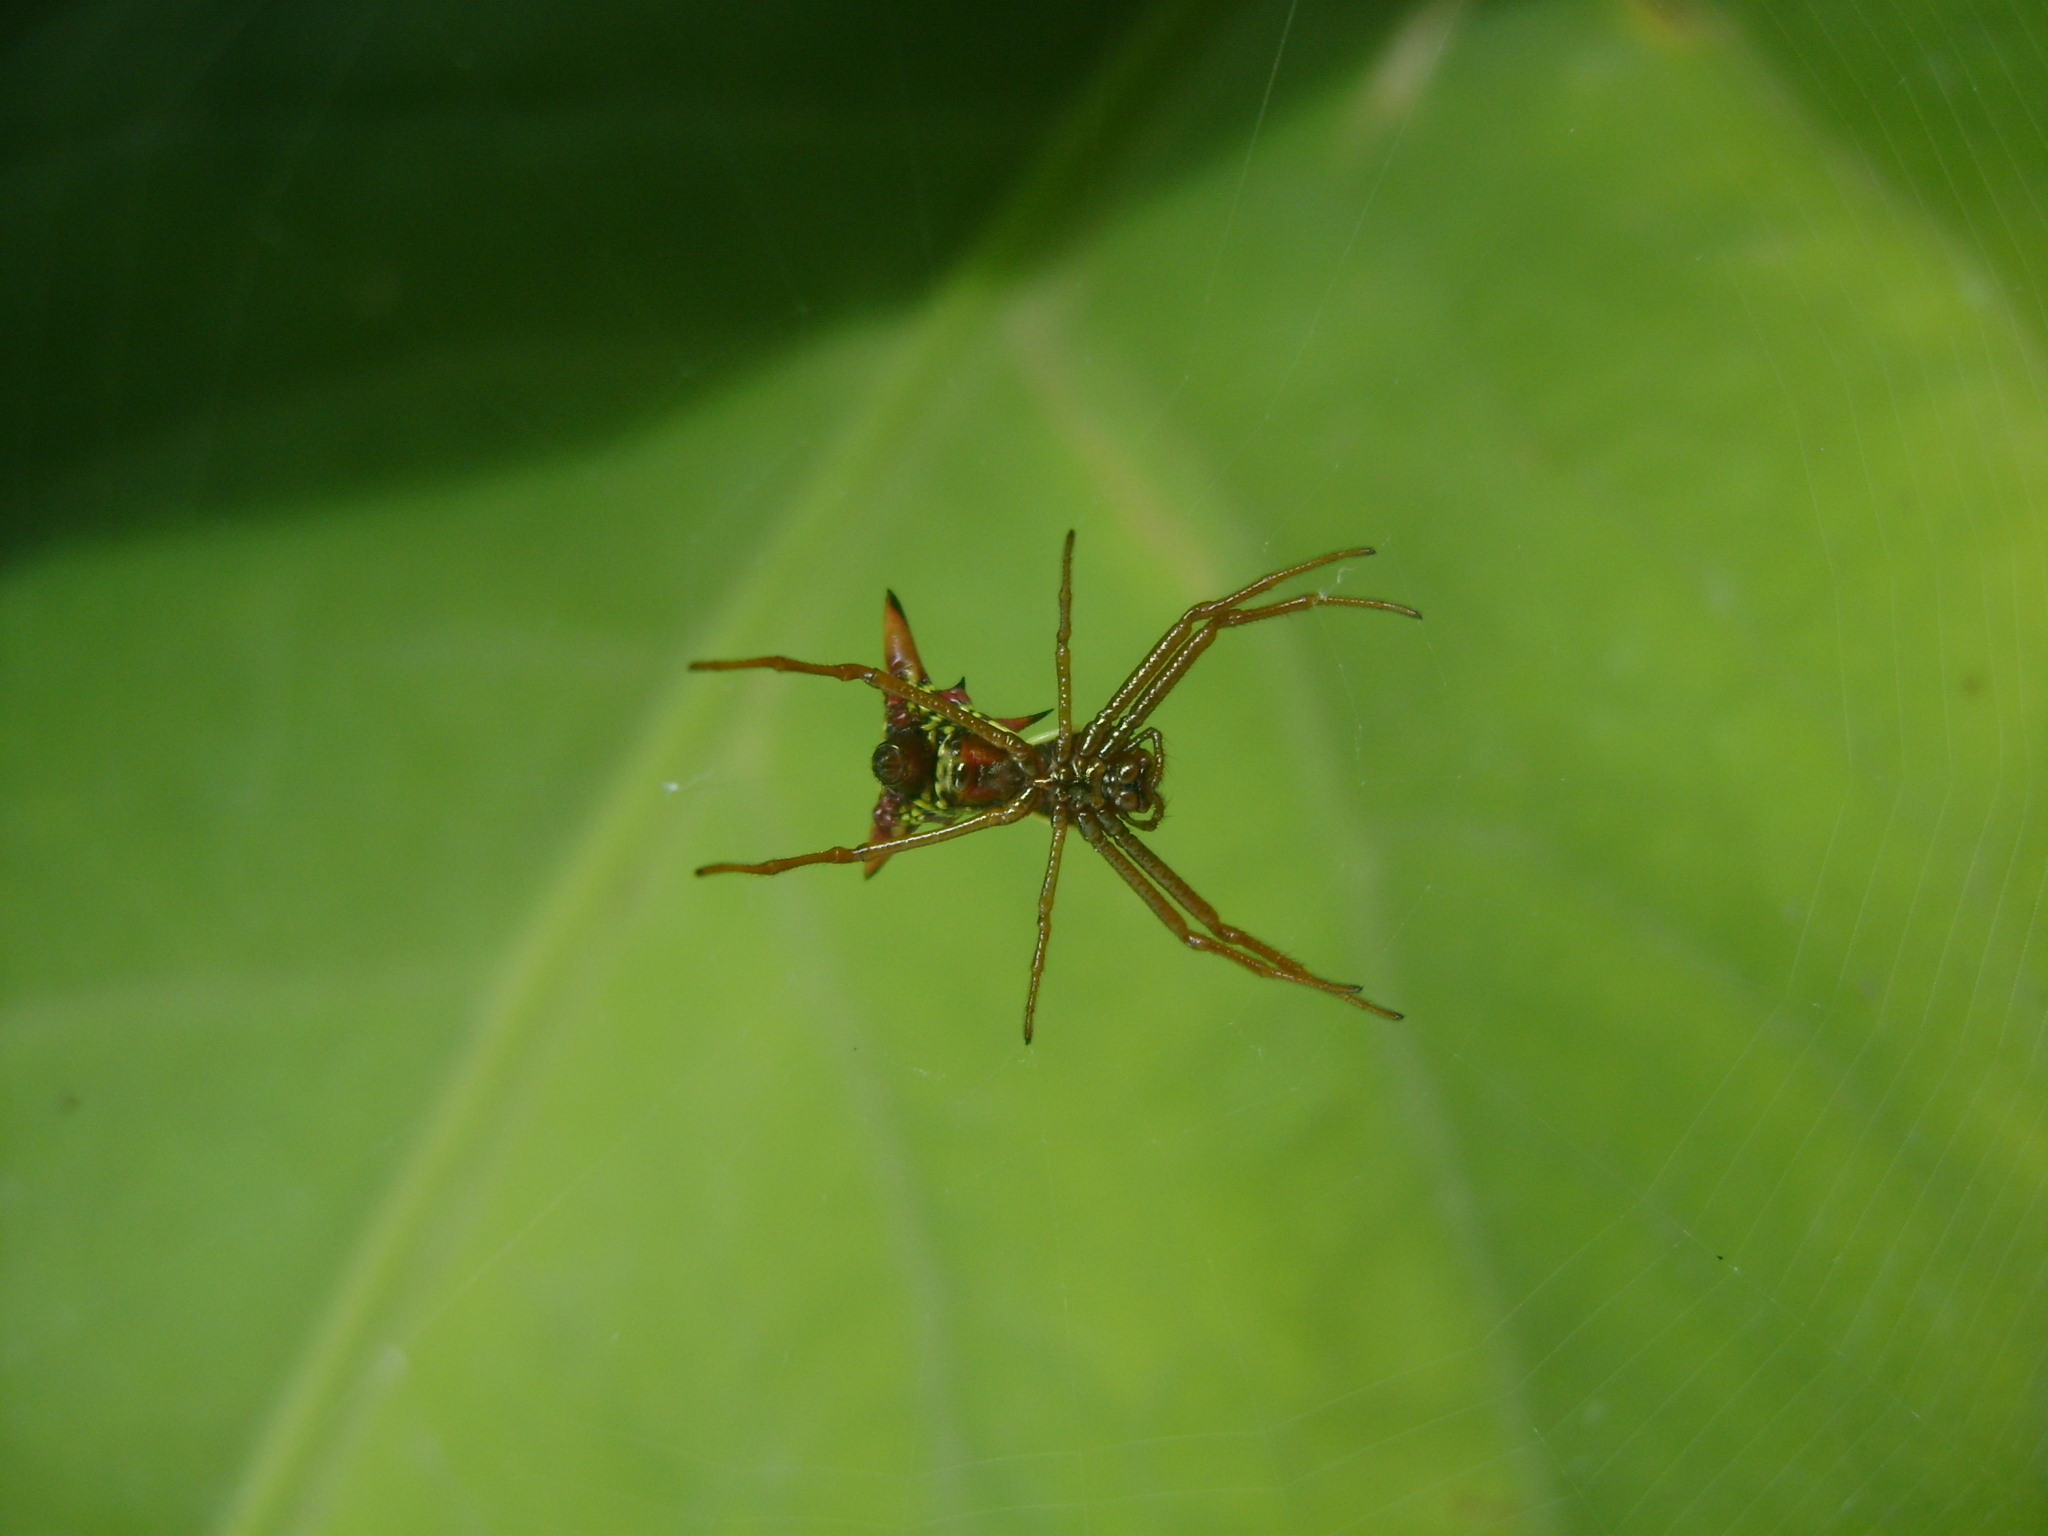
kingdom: Animalia
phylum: Arthropoda
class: Arachnida
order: Araneae
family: Araneidae
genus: Micrathena
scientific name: Micrathena sagittata
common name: Orb weavers
